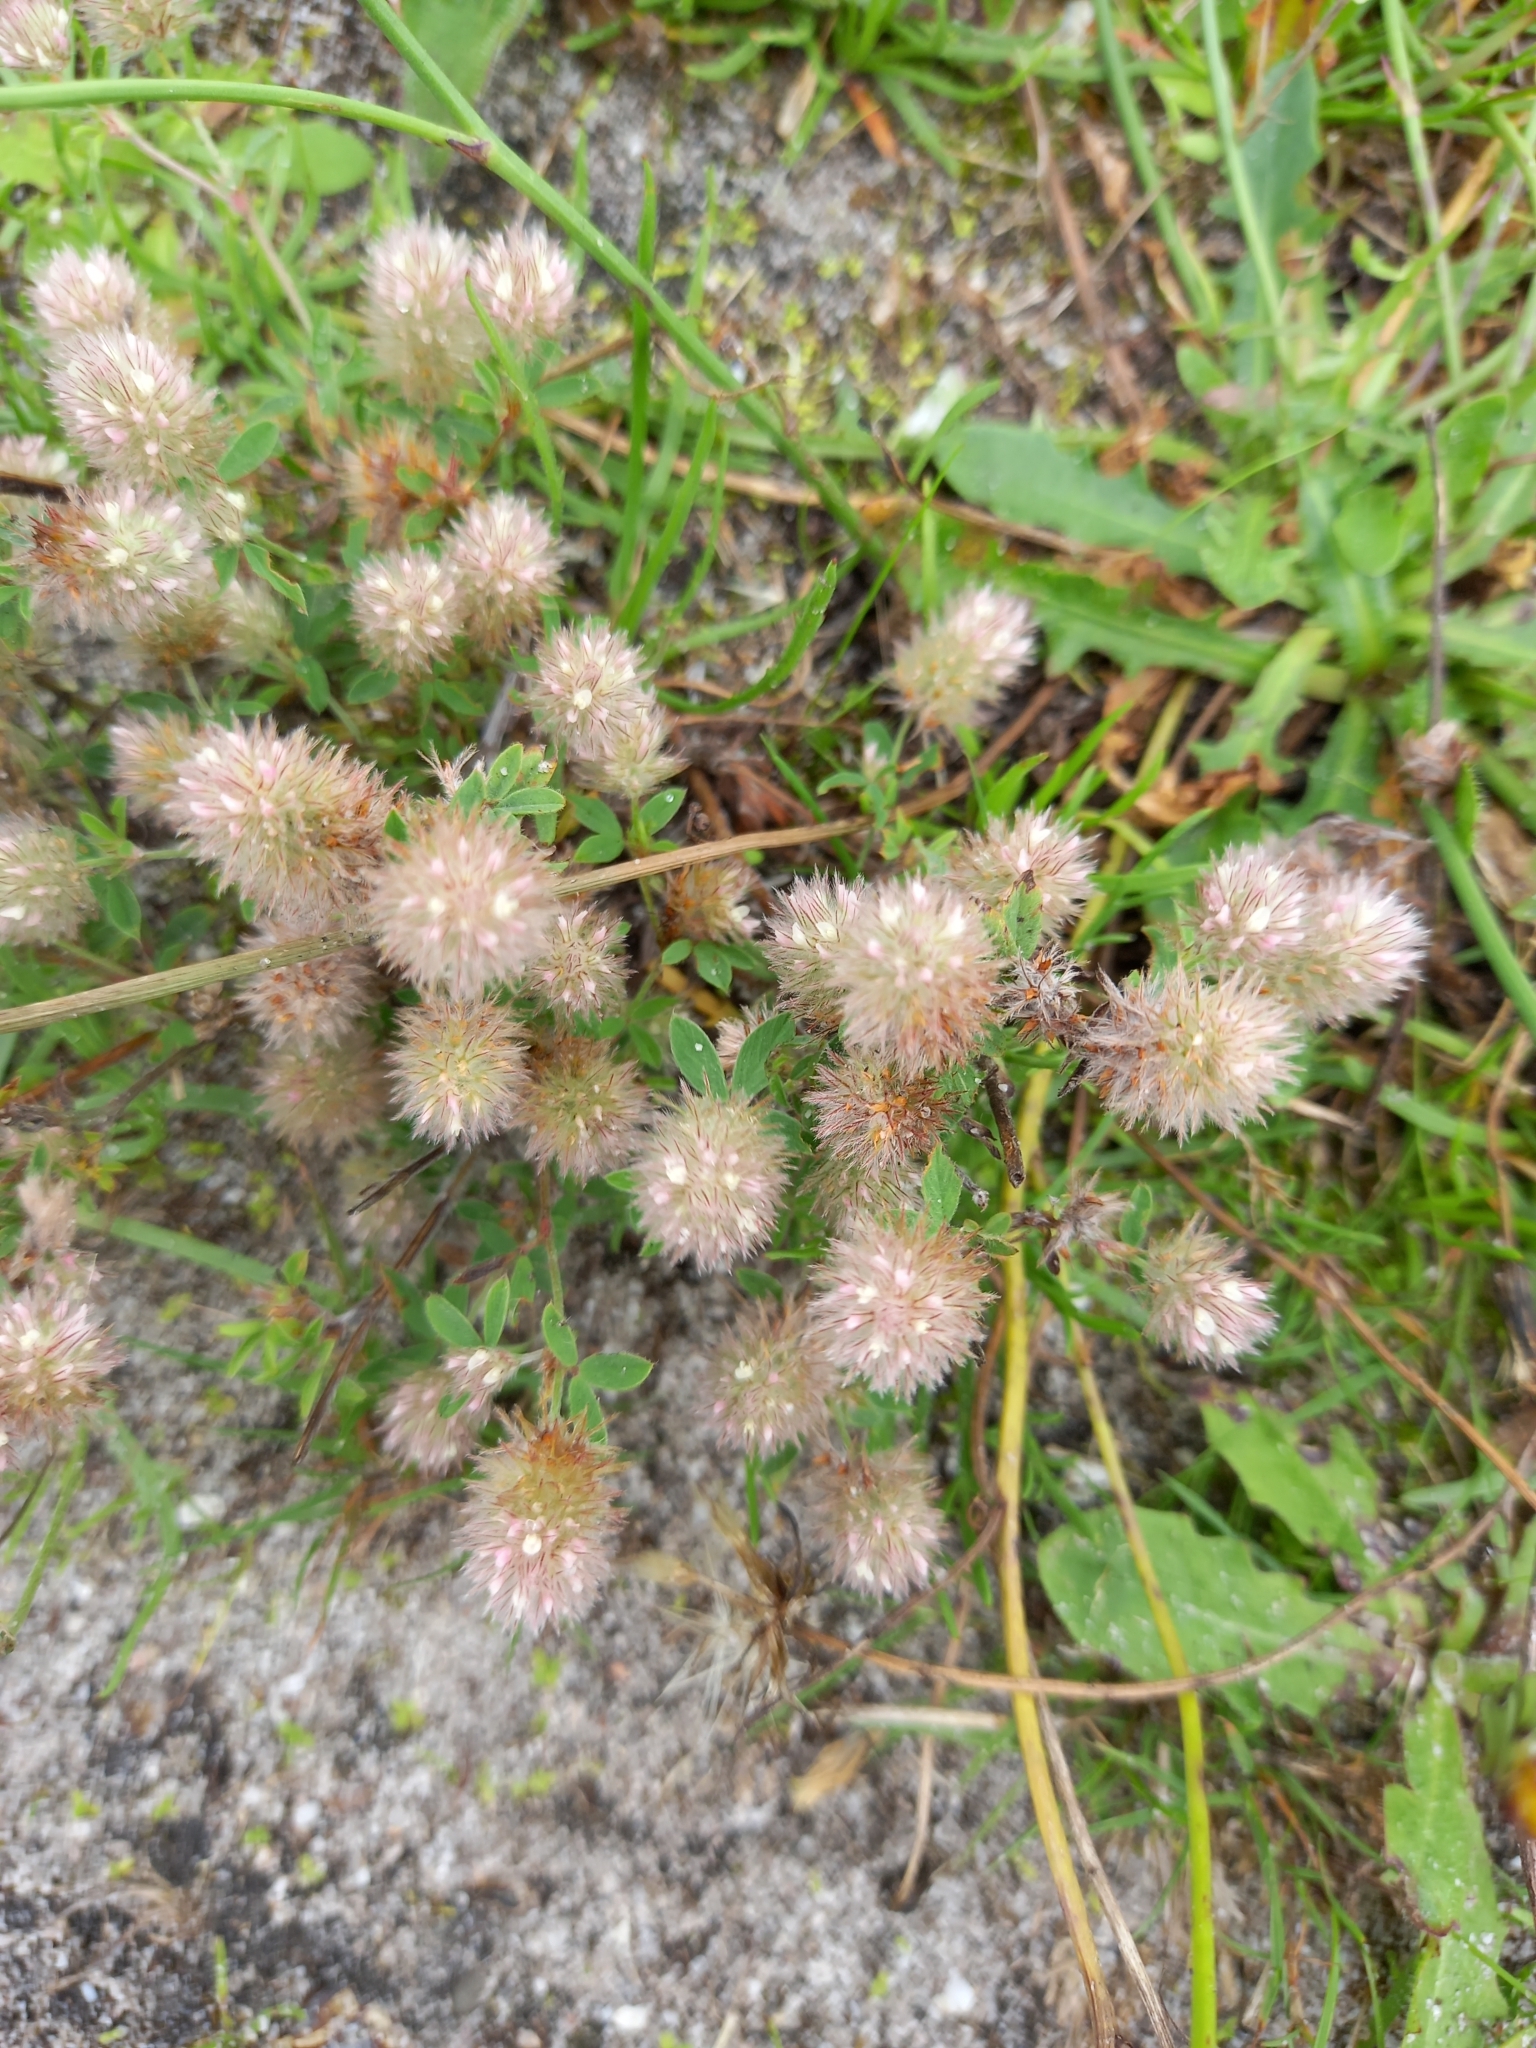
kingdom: Plantae
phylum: Tracheophyta
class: Magnoliopsida
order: Fabales
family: Fabaceae
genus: Trifolium
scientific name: Trifolium arvense
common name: Hare's-foot clover
